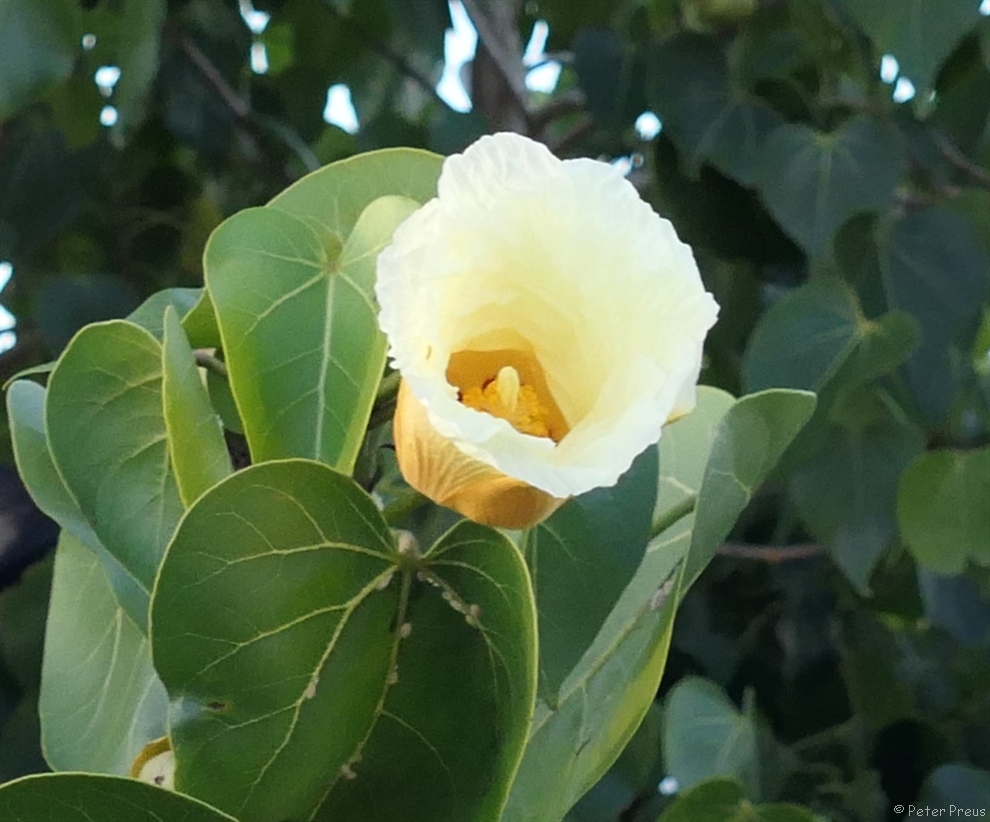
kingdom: Plantae
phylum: Tracheophyta
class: Magnoliopsida
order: Malvales
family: Malvaceae
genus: Thespesia
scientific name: Thespesia populnea
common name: Seaside mahoe
